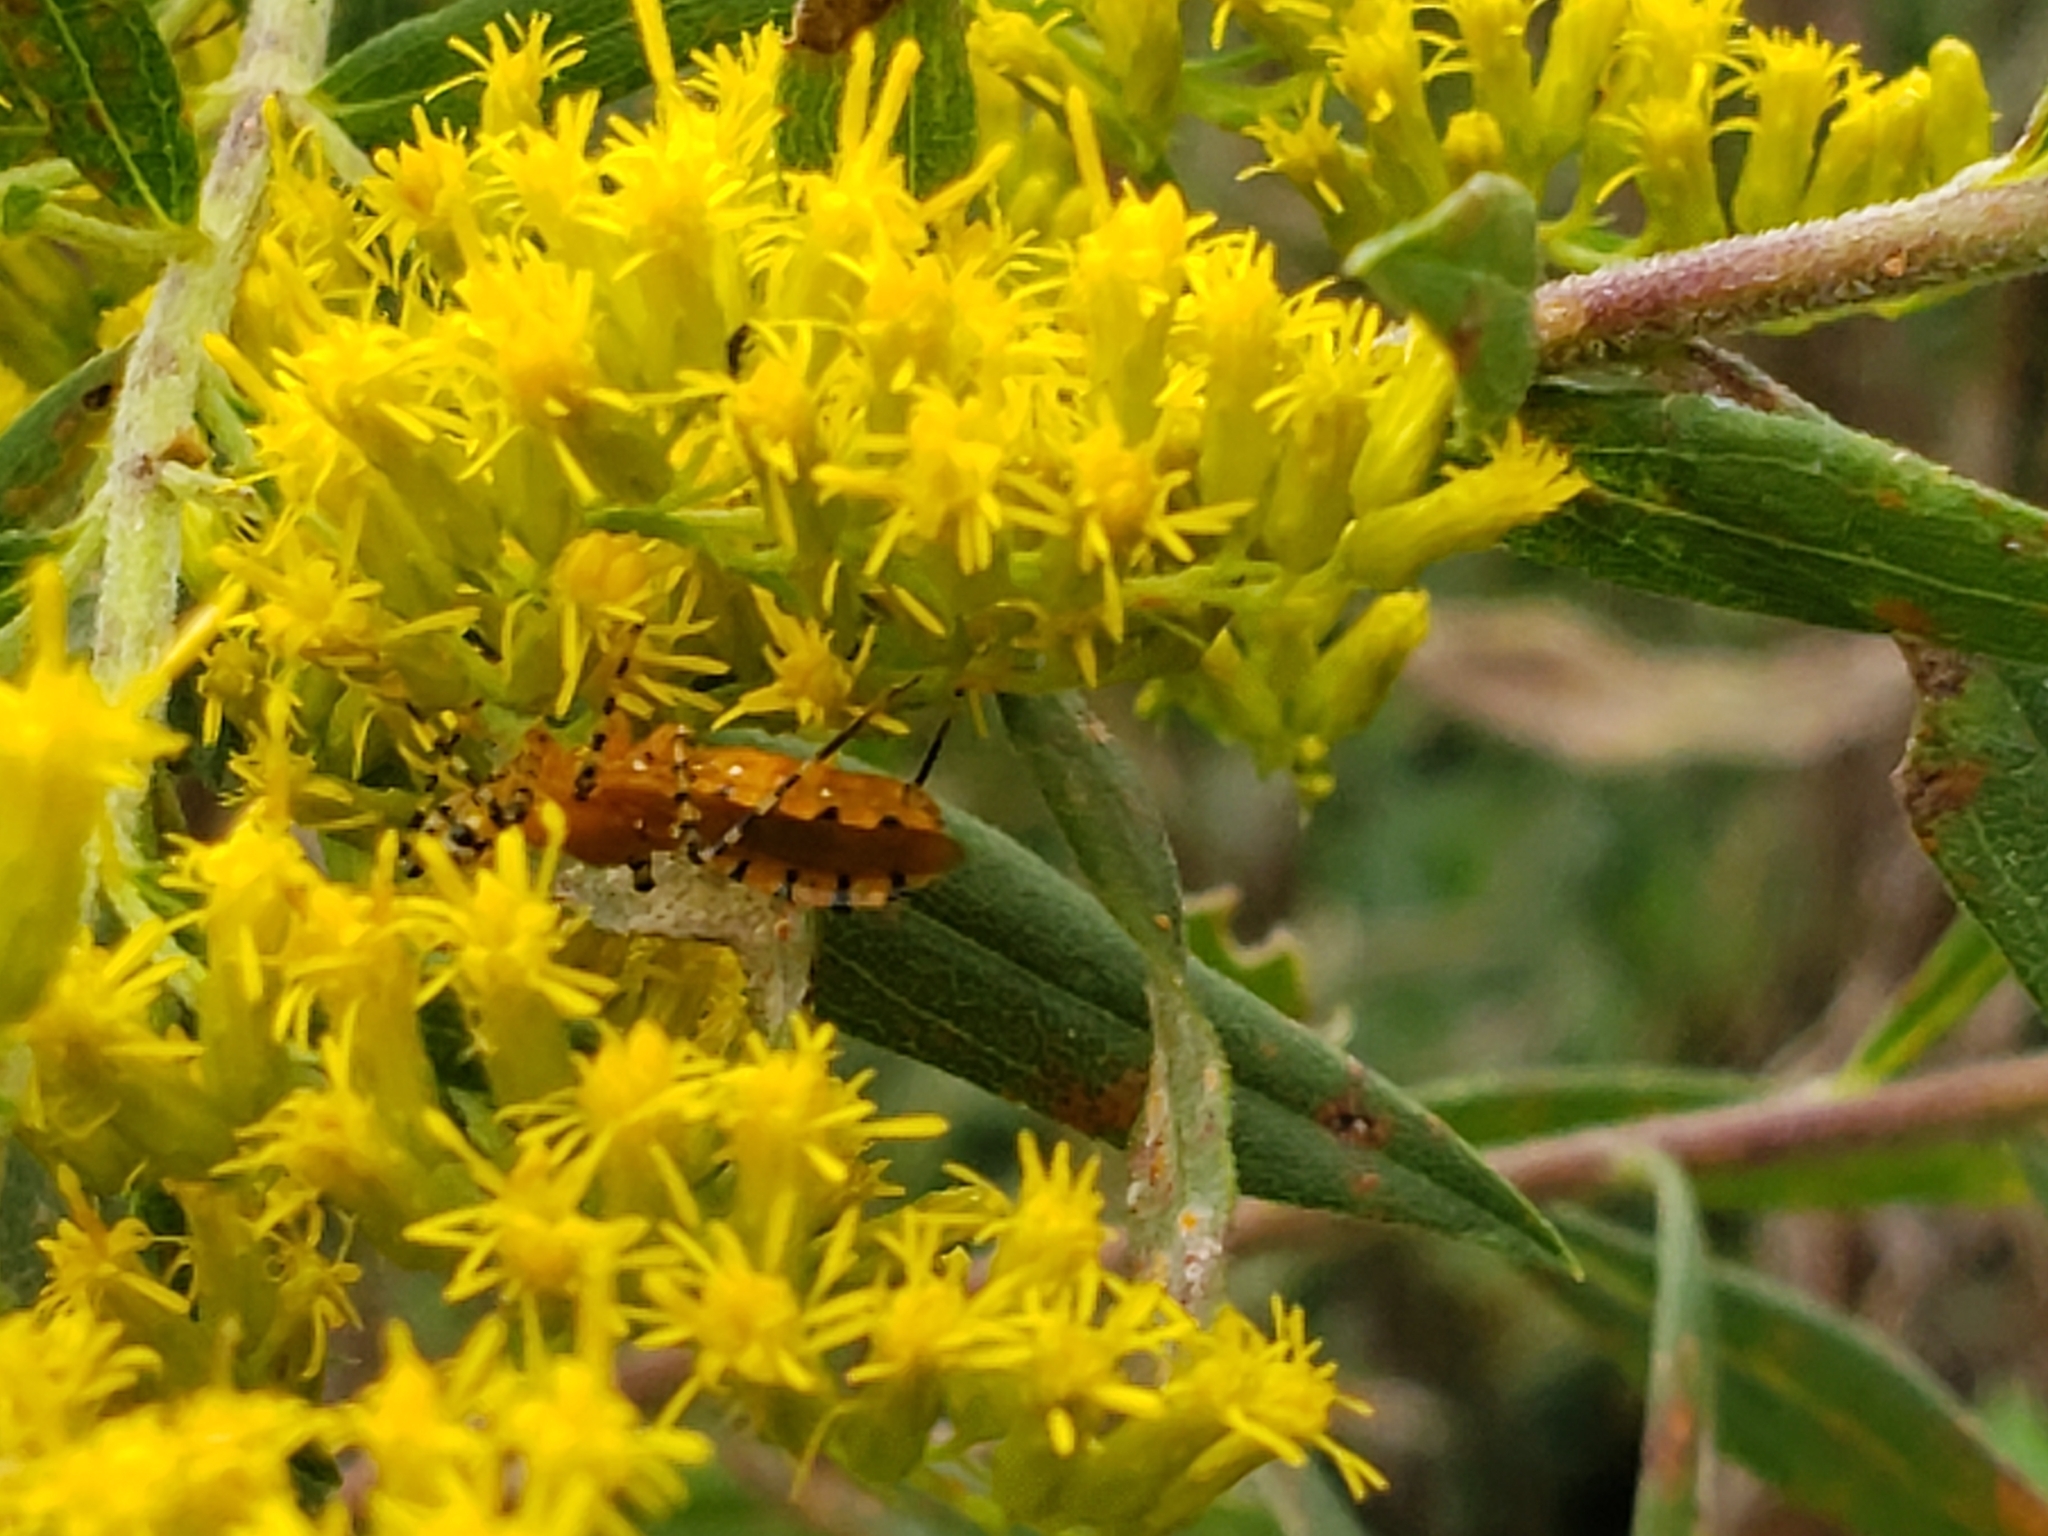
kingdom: Animalia
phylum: Arthropoda
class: Insecta
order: Hemiptera
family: Reduviidae
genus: Pselliopus
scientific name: Pselliopus barberi
